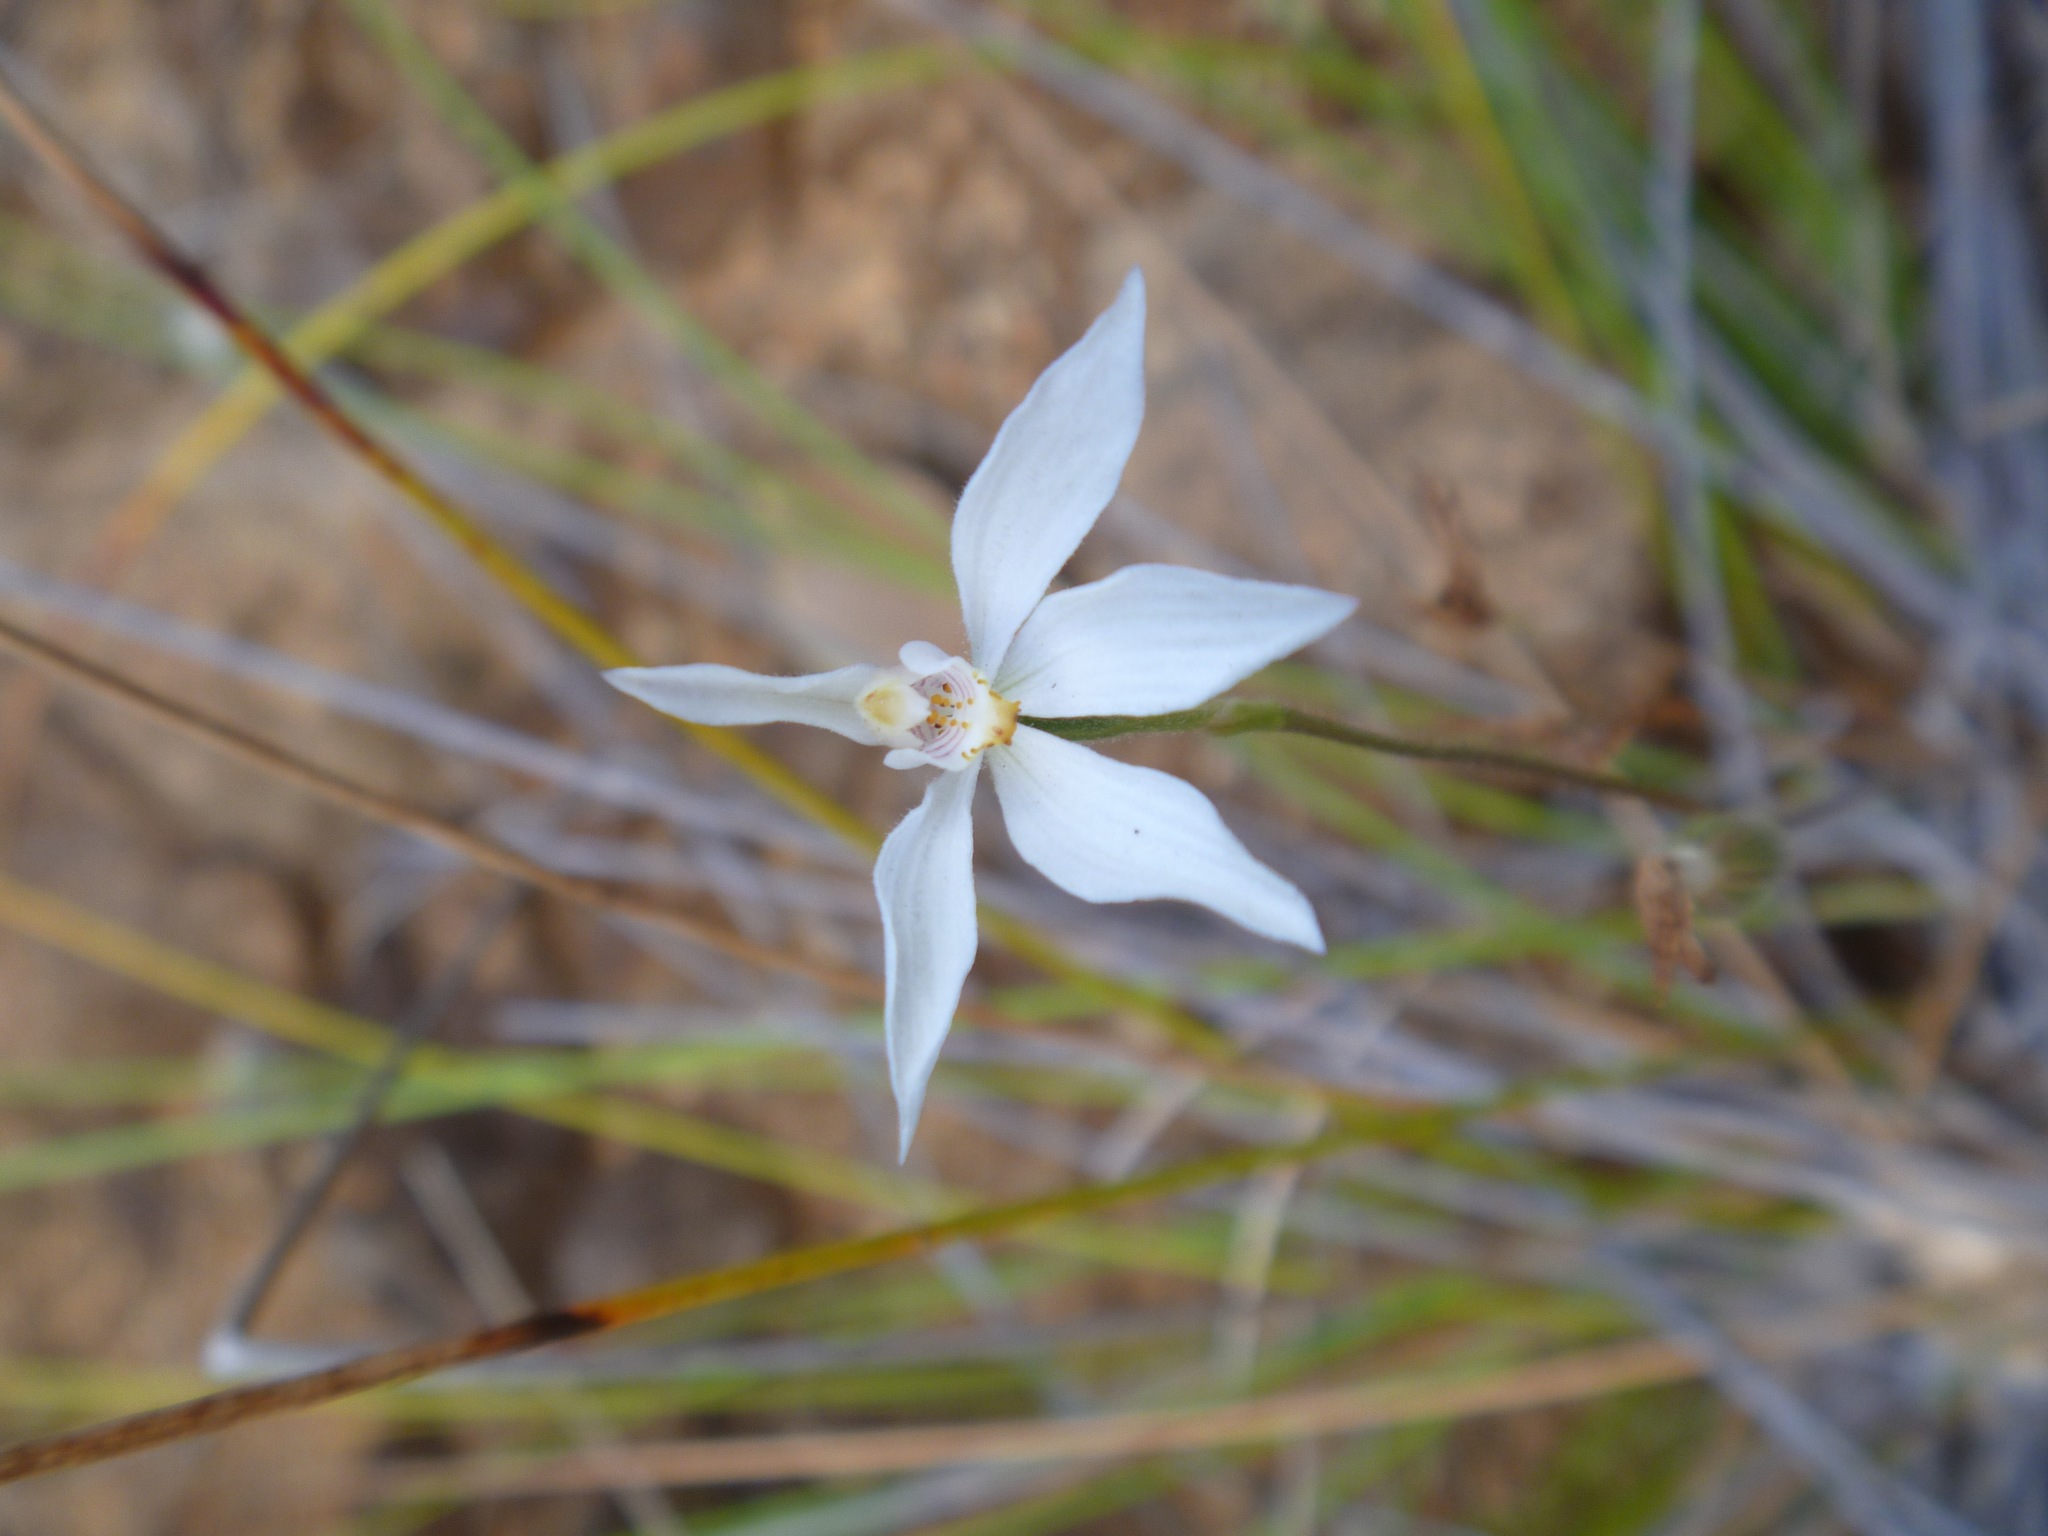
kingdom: Plantae
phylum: Tracheophyta
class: Liliopsida
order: Asparagales
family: Orchidaceae
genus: Caladenia
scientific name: Caladenia catenata
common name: White caladenia
